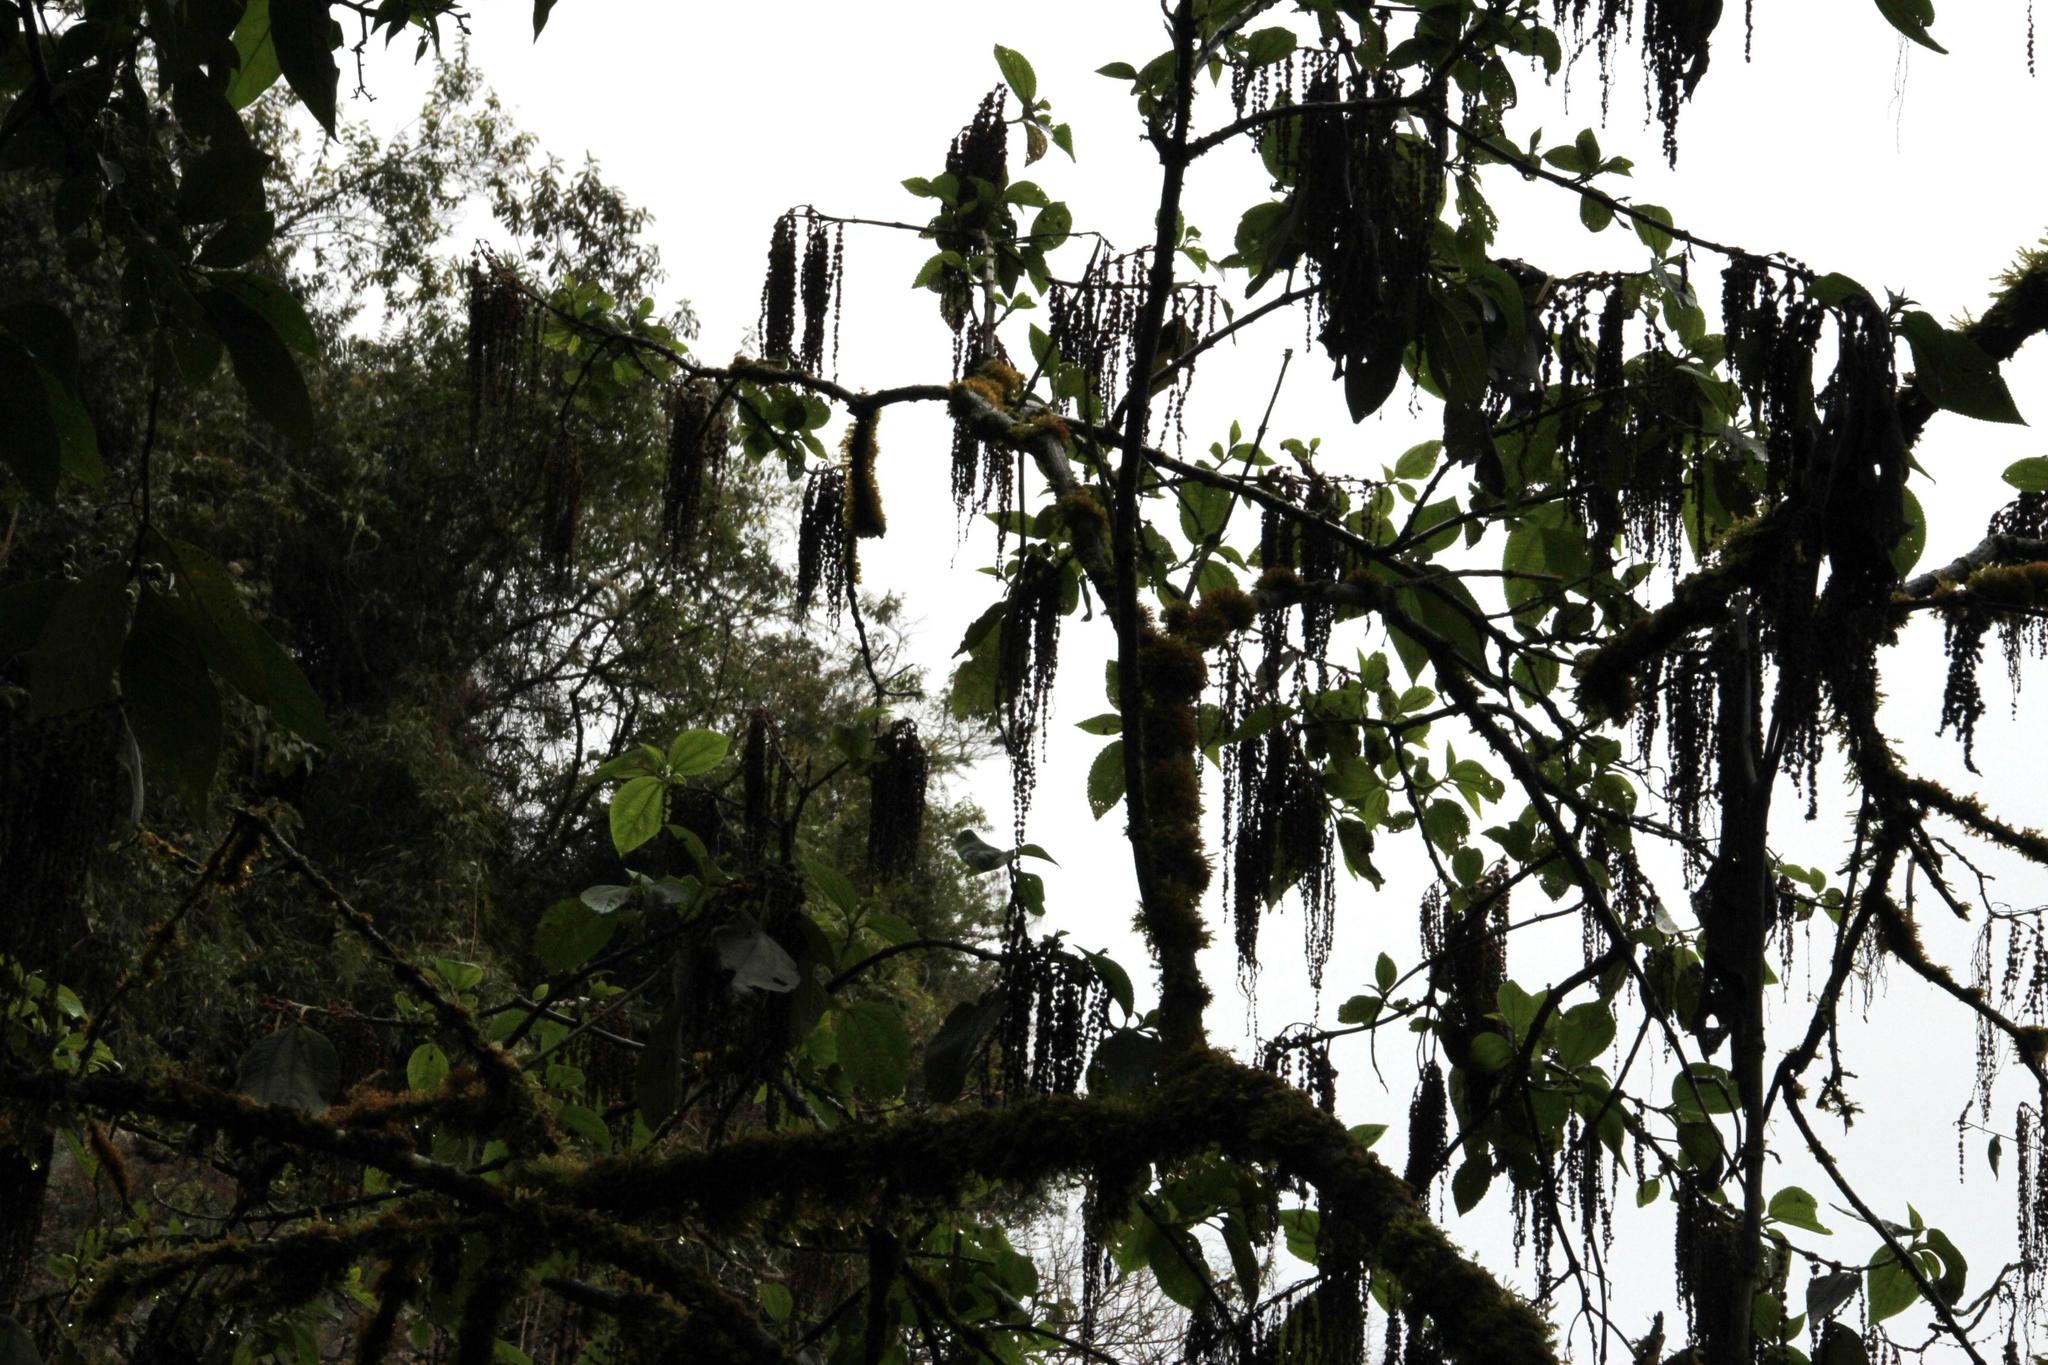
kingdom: Plantae
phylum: Tracheophyta
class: Magnoliopsida
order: Rosales
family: Urticaceae
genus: Boehmeria
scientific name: Boehmeria caudata
